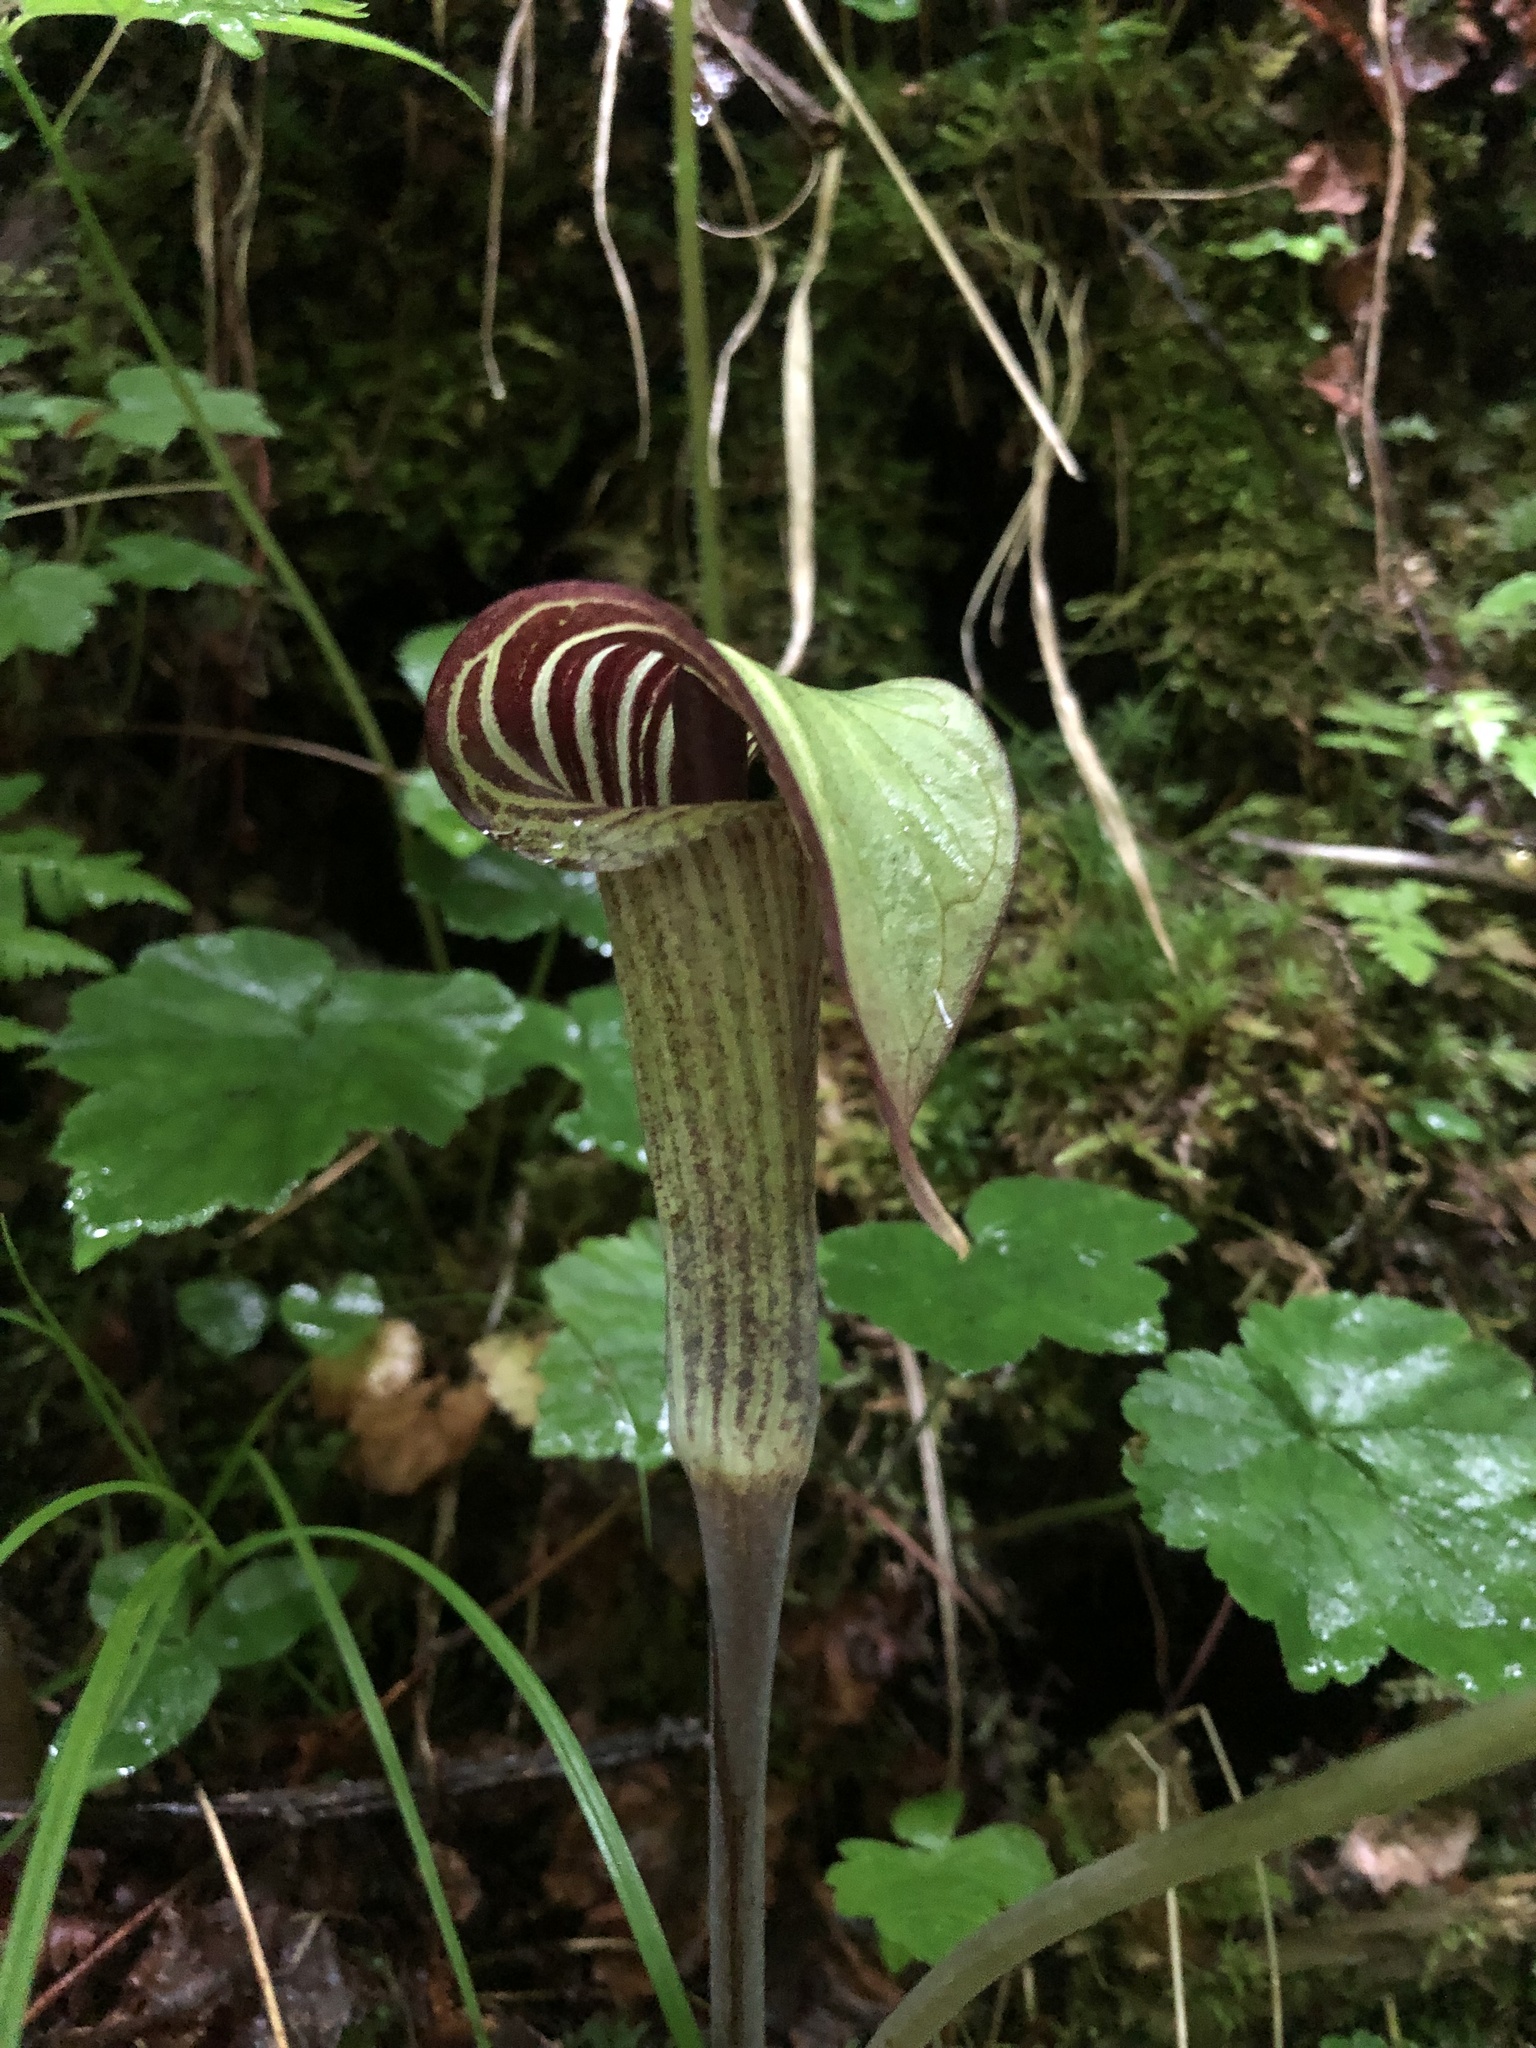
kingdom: Plantae
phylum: Tracheophyta
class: Liliopsida
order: Alismatales
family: Araceae
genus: Arisaema
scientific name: Arisaema triphyllum
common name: Jack-in-the-pulpit
